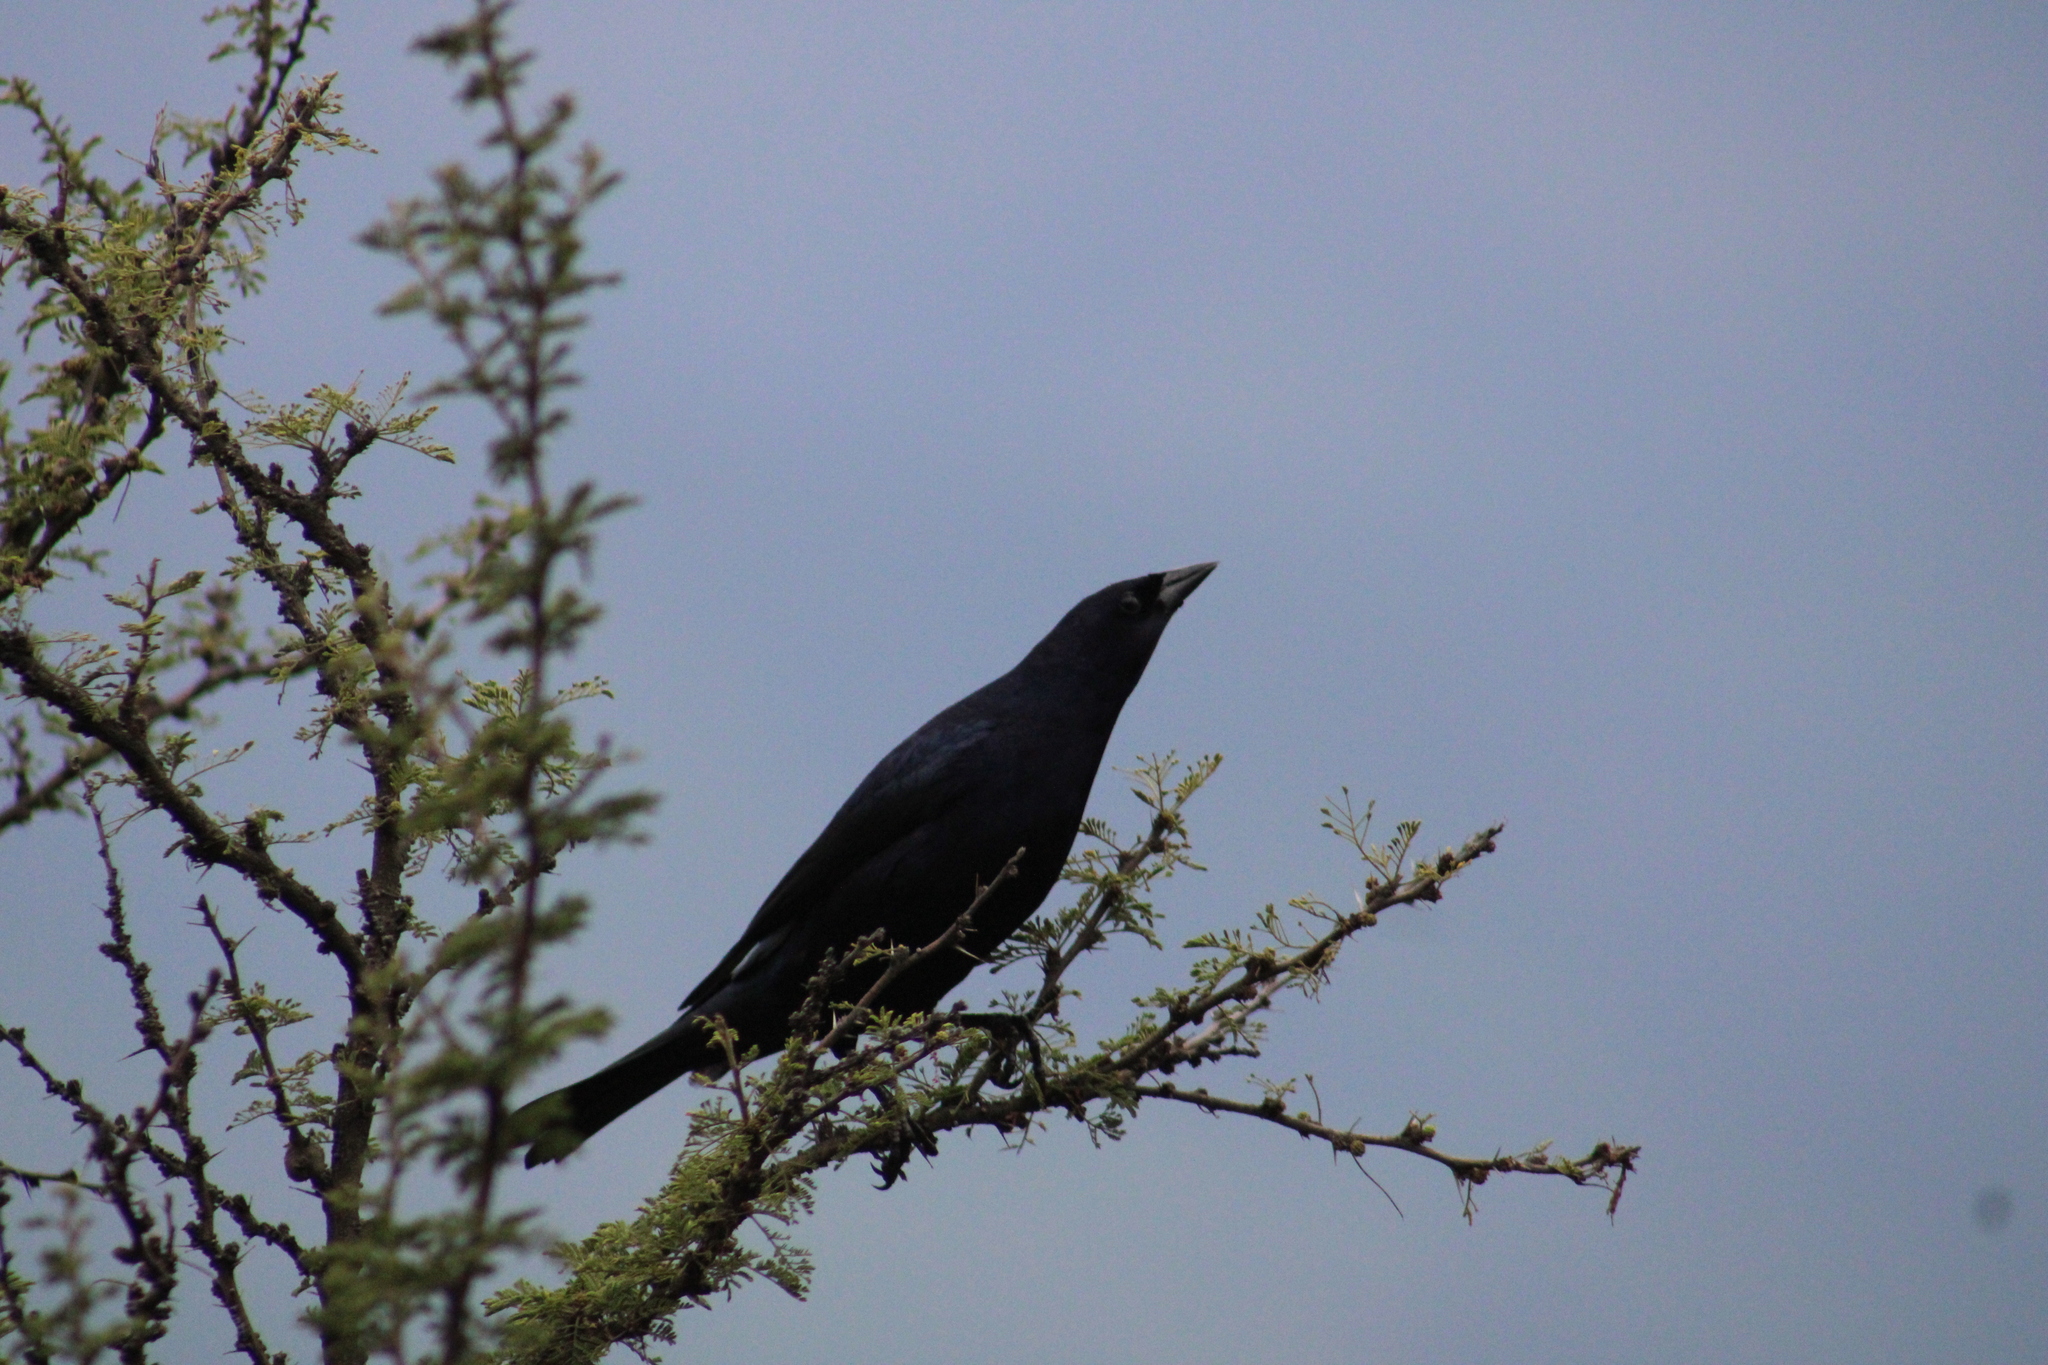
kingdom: Animalia
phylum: Chordata
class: Aves
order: Passeriformes
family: Icteridae
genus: Molothrus
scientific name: Molothrus bonariensis
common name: Shiny cowbird
